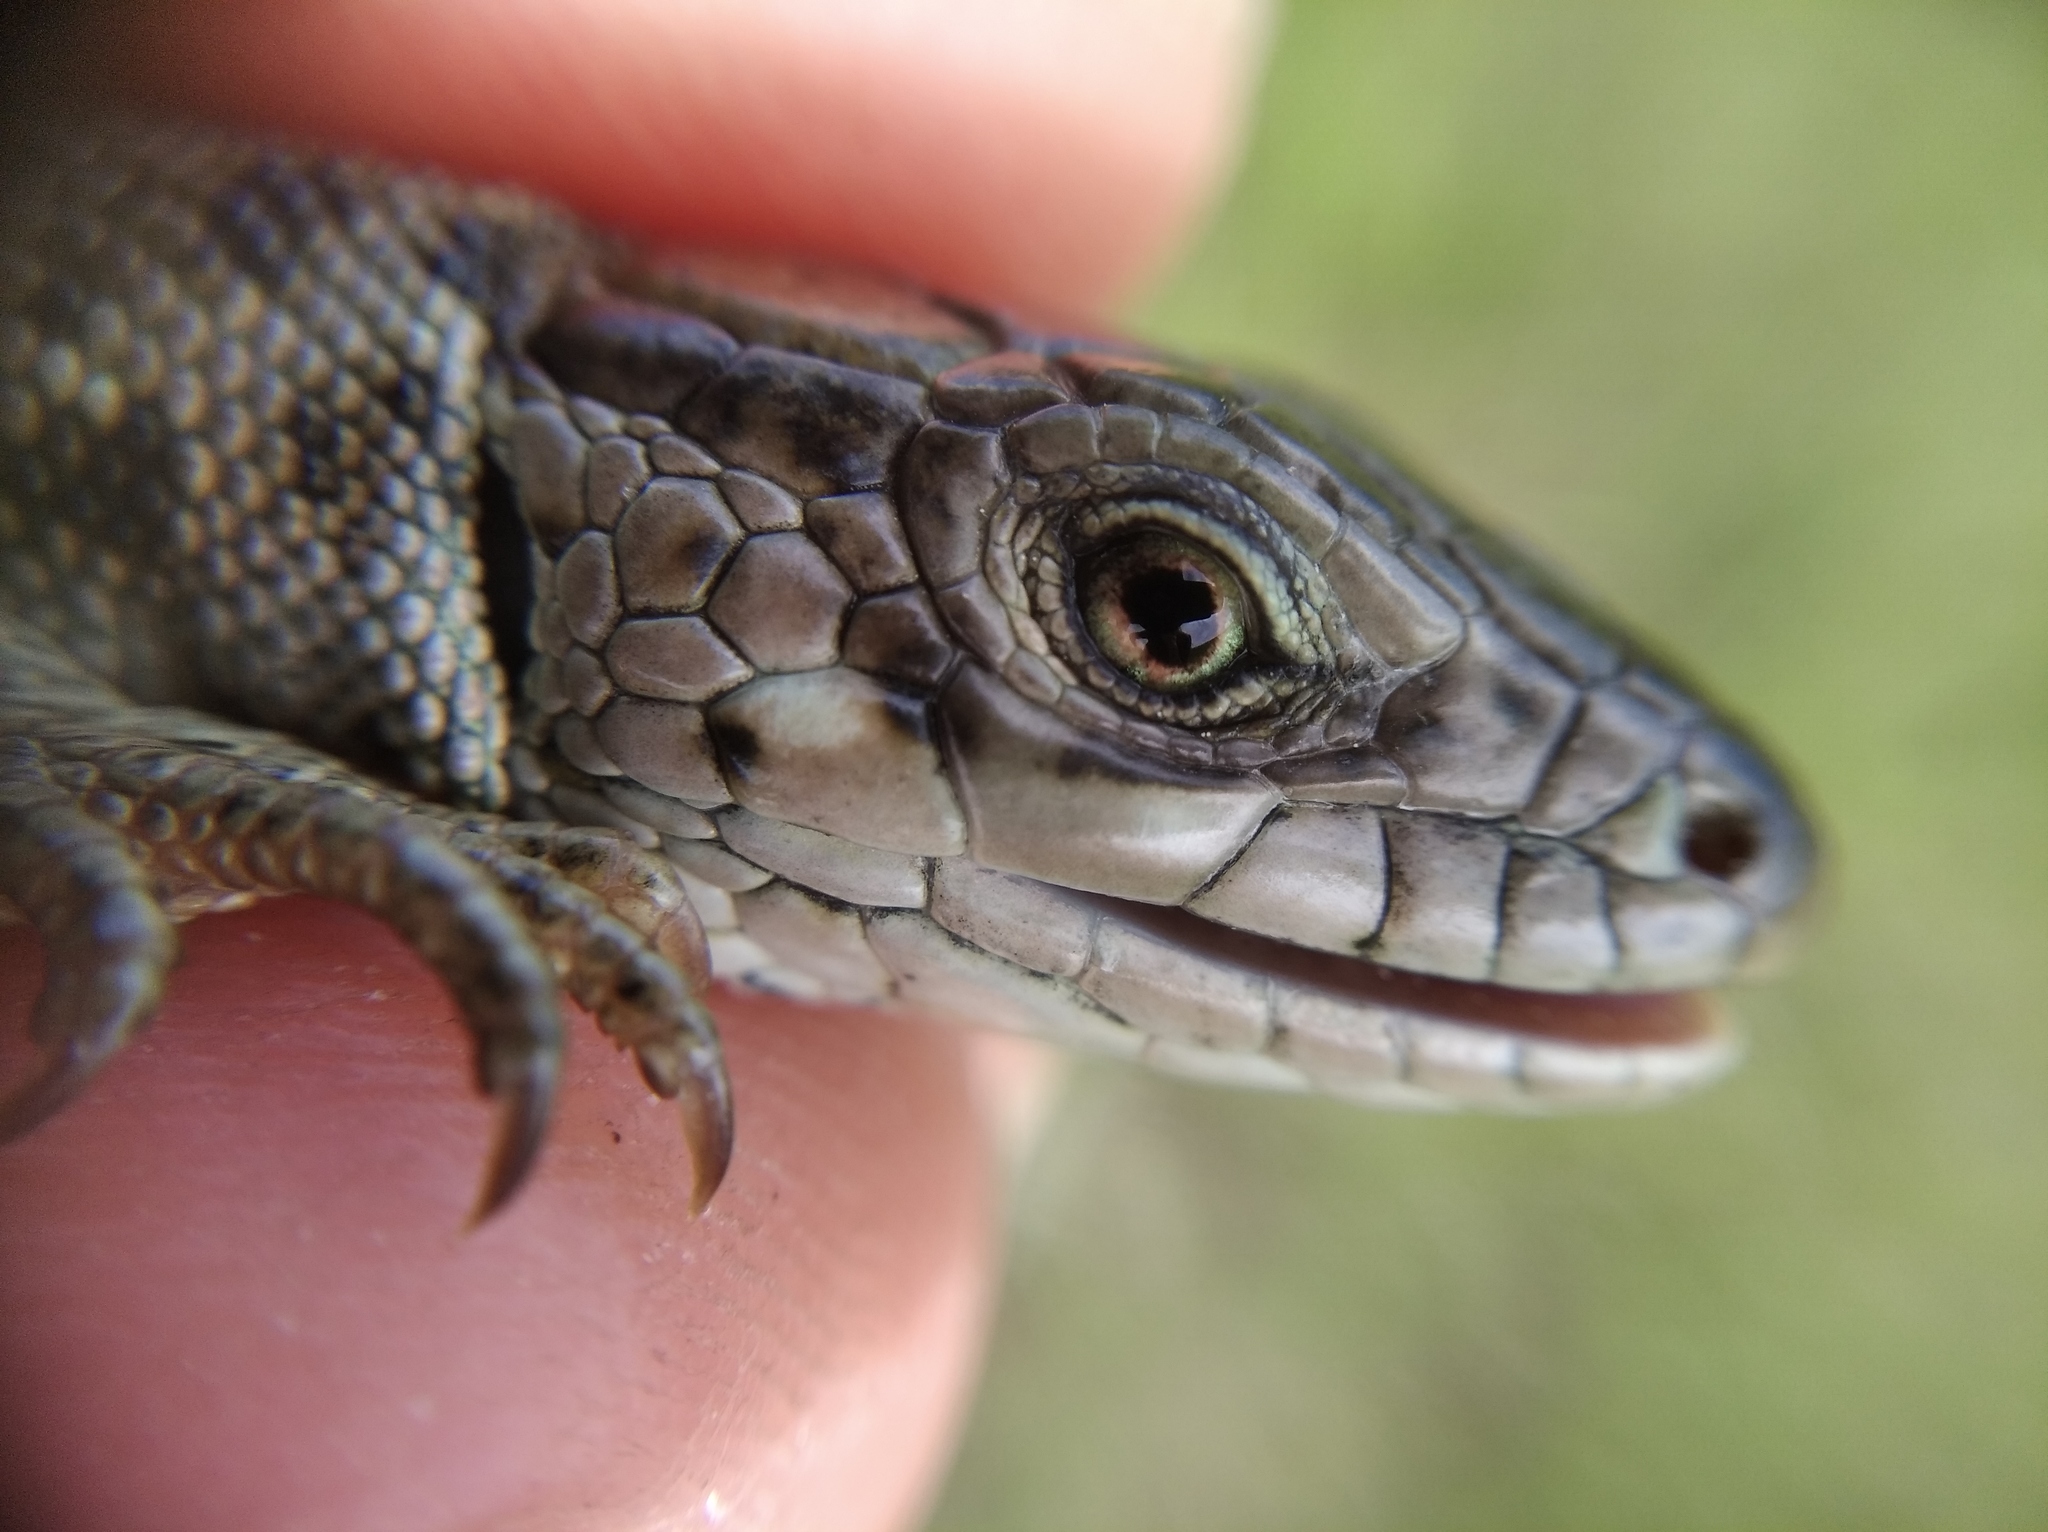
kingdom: Animalia
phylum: Chordata
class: Squamata
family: Lacertidae
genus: Lacerta
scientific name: Lacerta agilis
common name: Sand lizard
